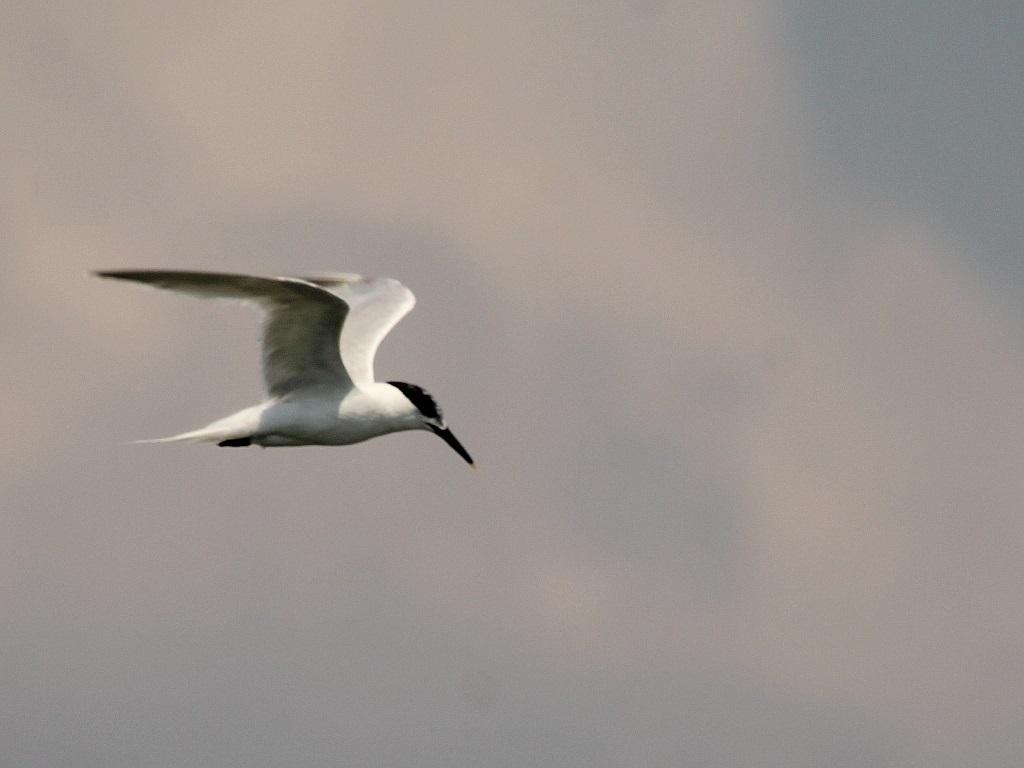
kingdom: Animalia
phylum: Chordata
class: Aves
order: Charadriiformes
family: Laridae
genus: Thalasseus
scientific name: Thalasseus sandvicensis
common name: Sandwich tern
